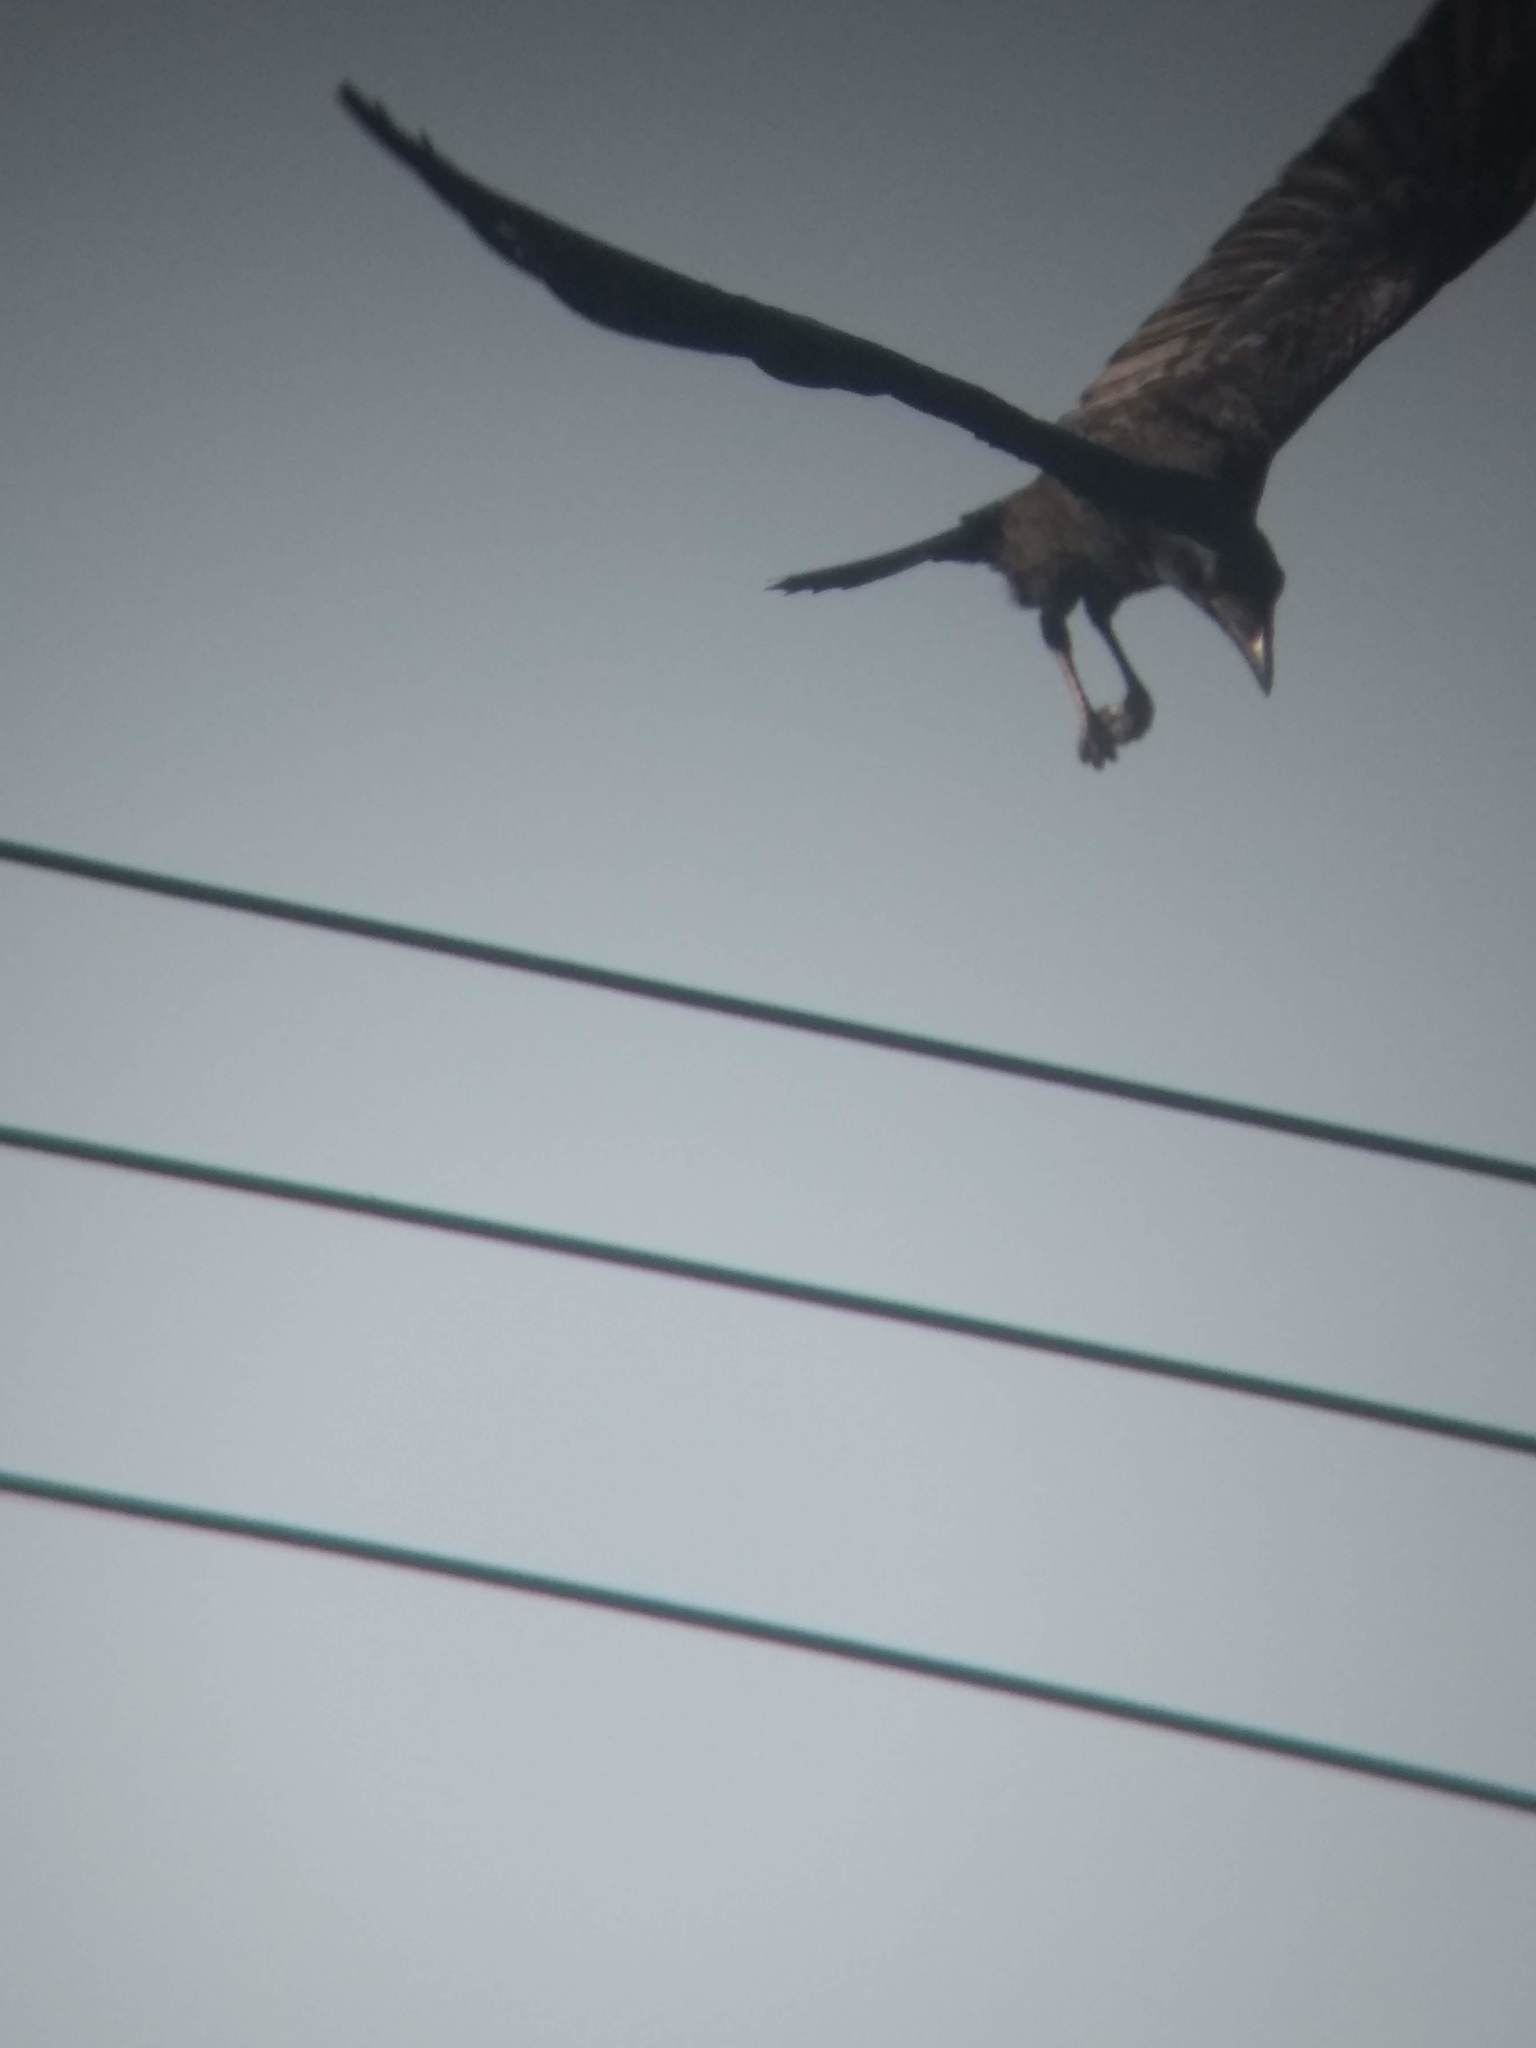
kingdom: Animalia
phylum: Chordata
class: Aves
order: Passeriformes
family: Corvidae
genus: Corvus
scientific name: Corvus brachyrhynchos
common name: American crow
